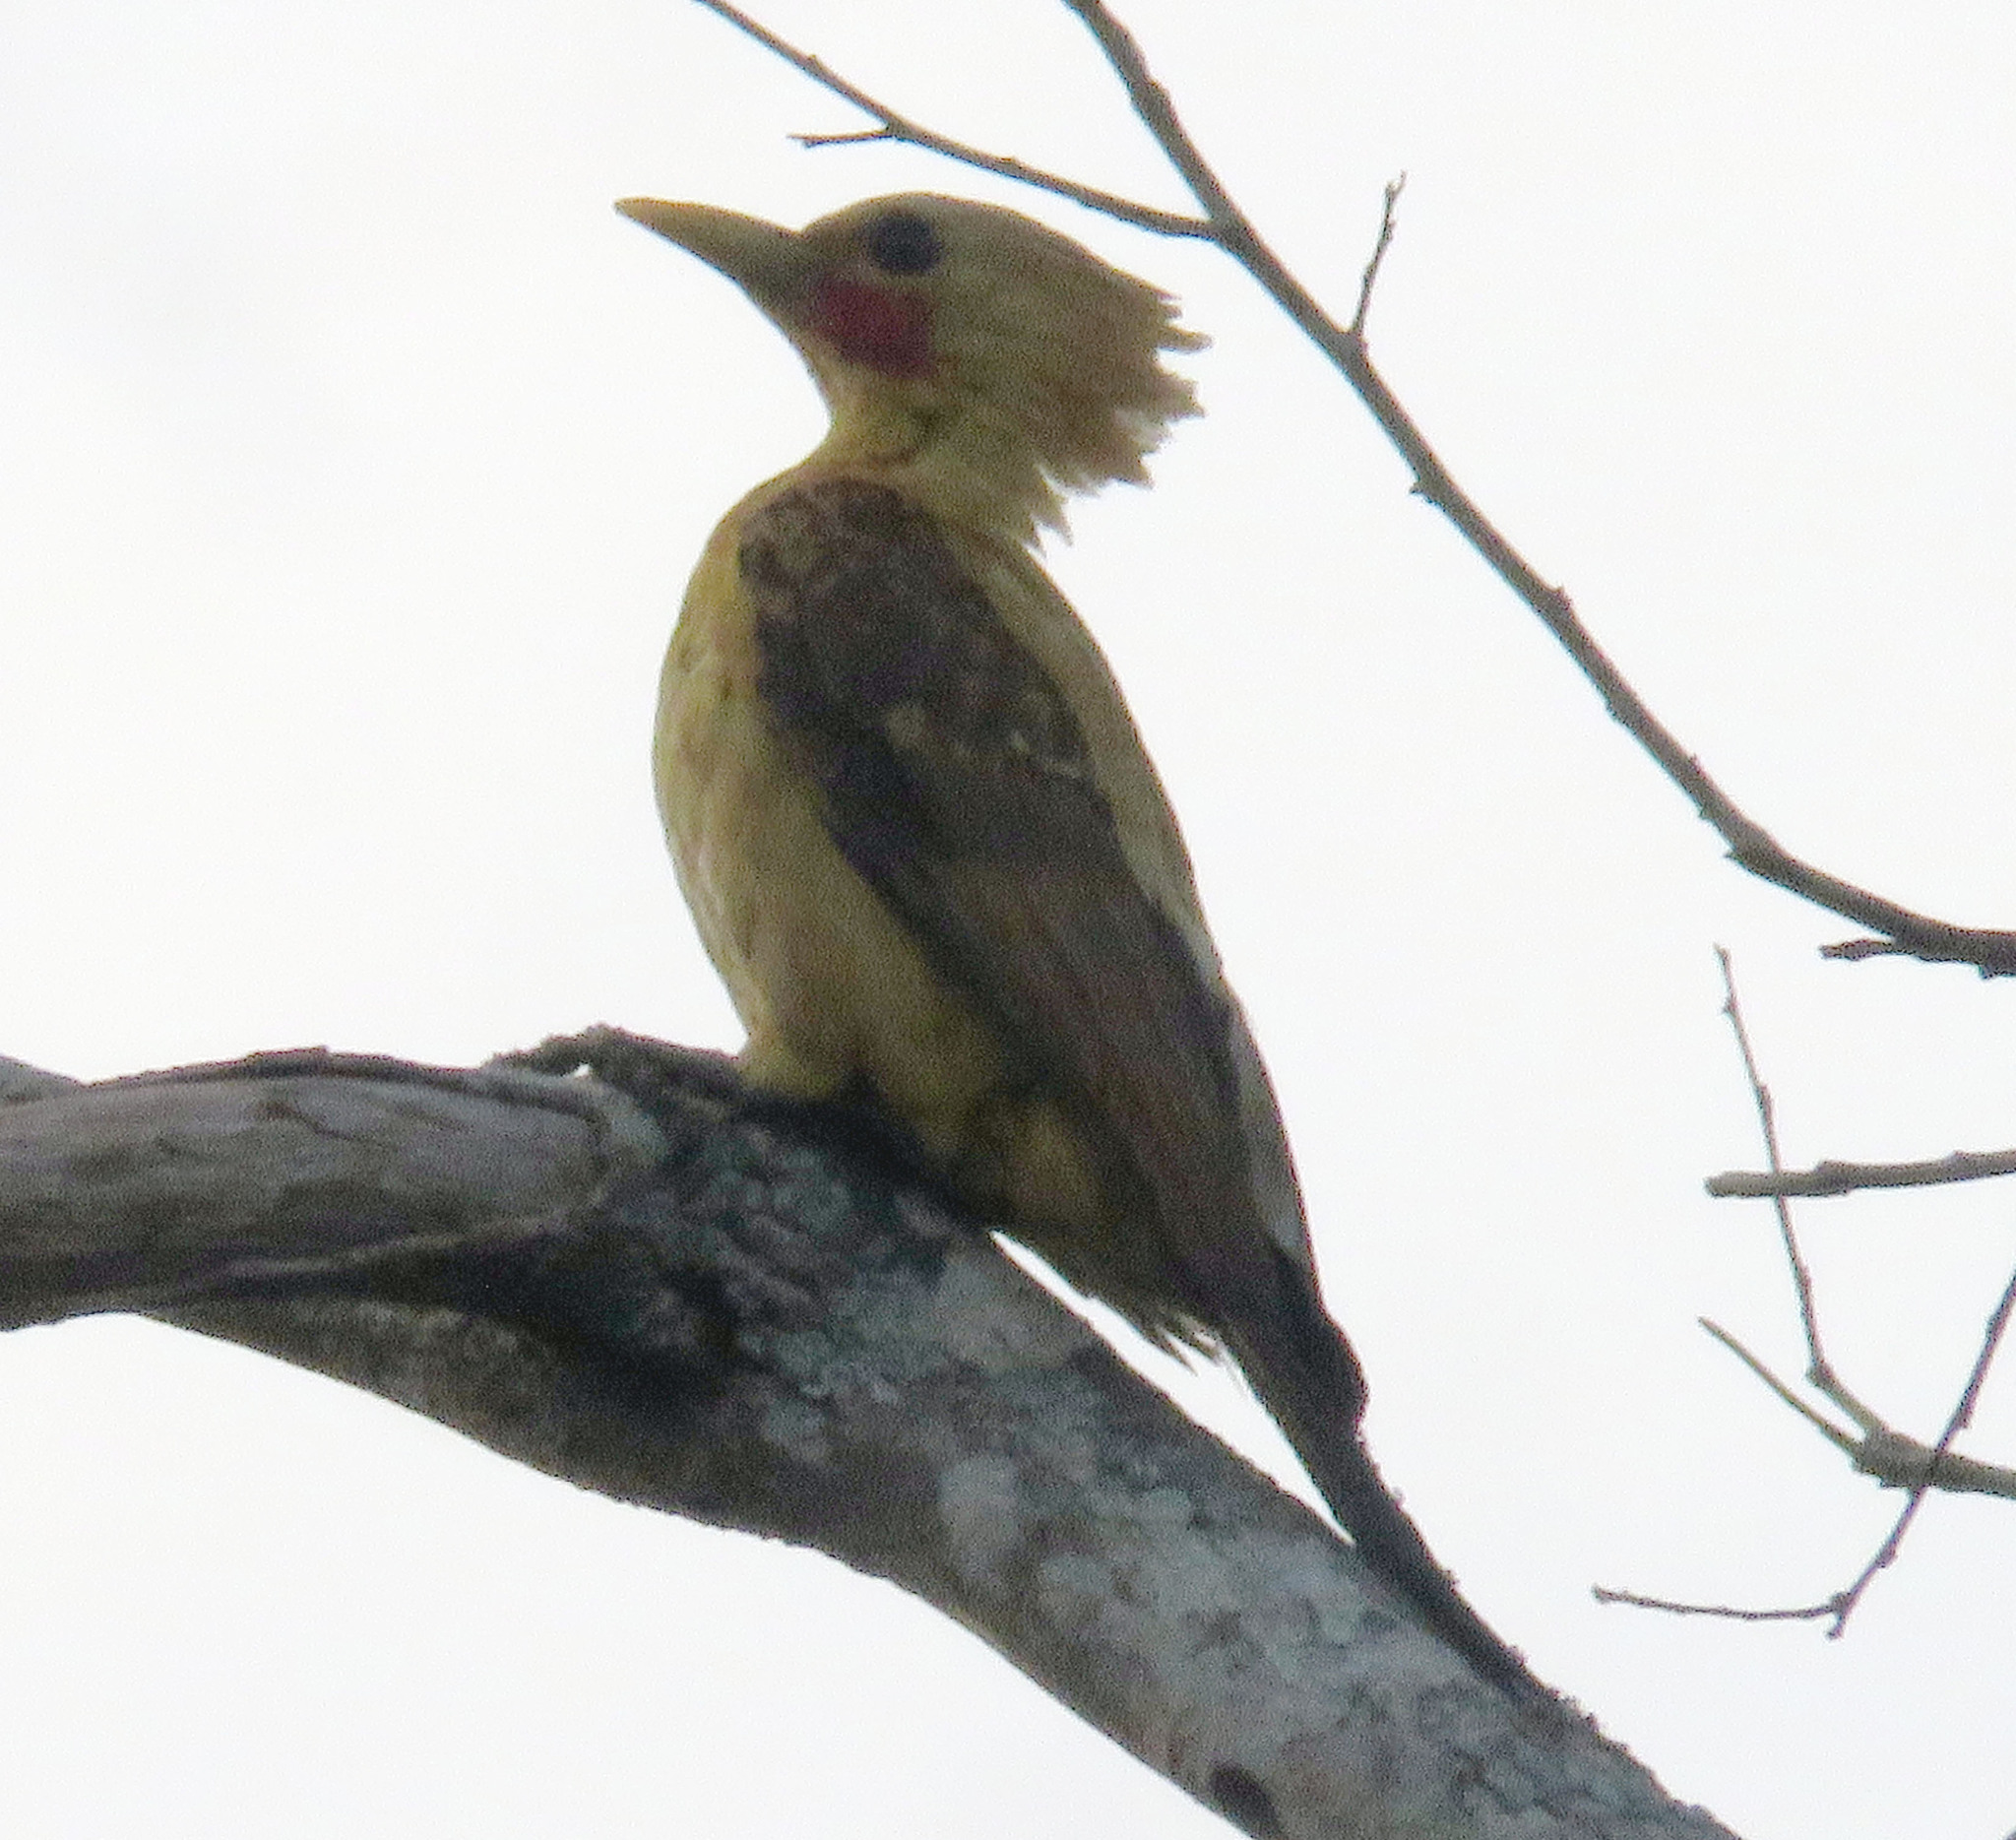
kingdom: Animalia
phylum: Chordata
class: Aves
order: Piciformes
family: Picidae
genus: Celeus
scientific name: Celeus flavus
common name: Cream-colored woodpecker
